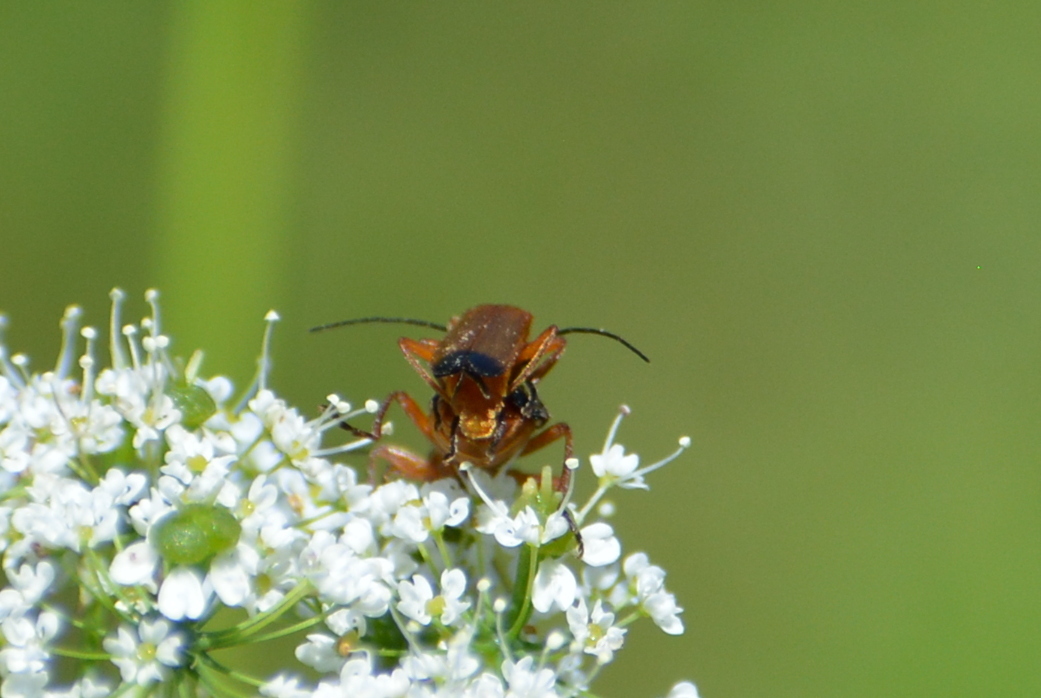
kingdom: Animalia
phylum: Arthropoda
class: Insecta
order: Coleoptera
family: Cantharidae
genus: Rhagonycha
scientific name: Rhagonycha fulva
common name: Common red soldier beetle
